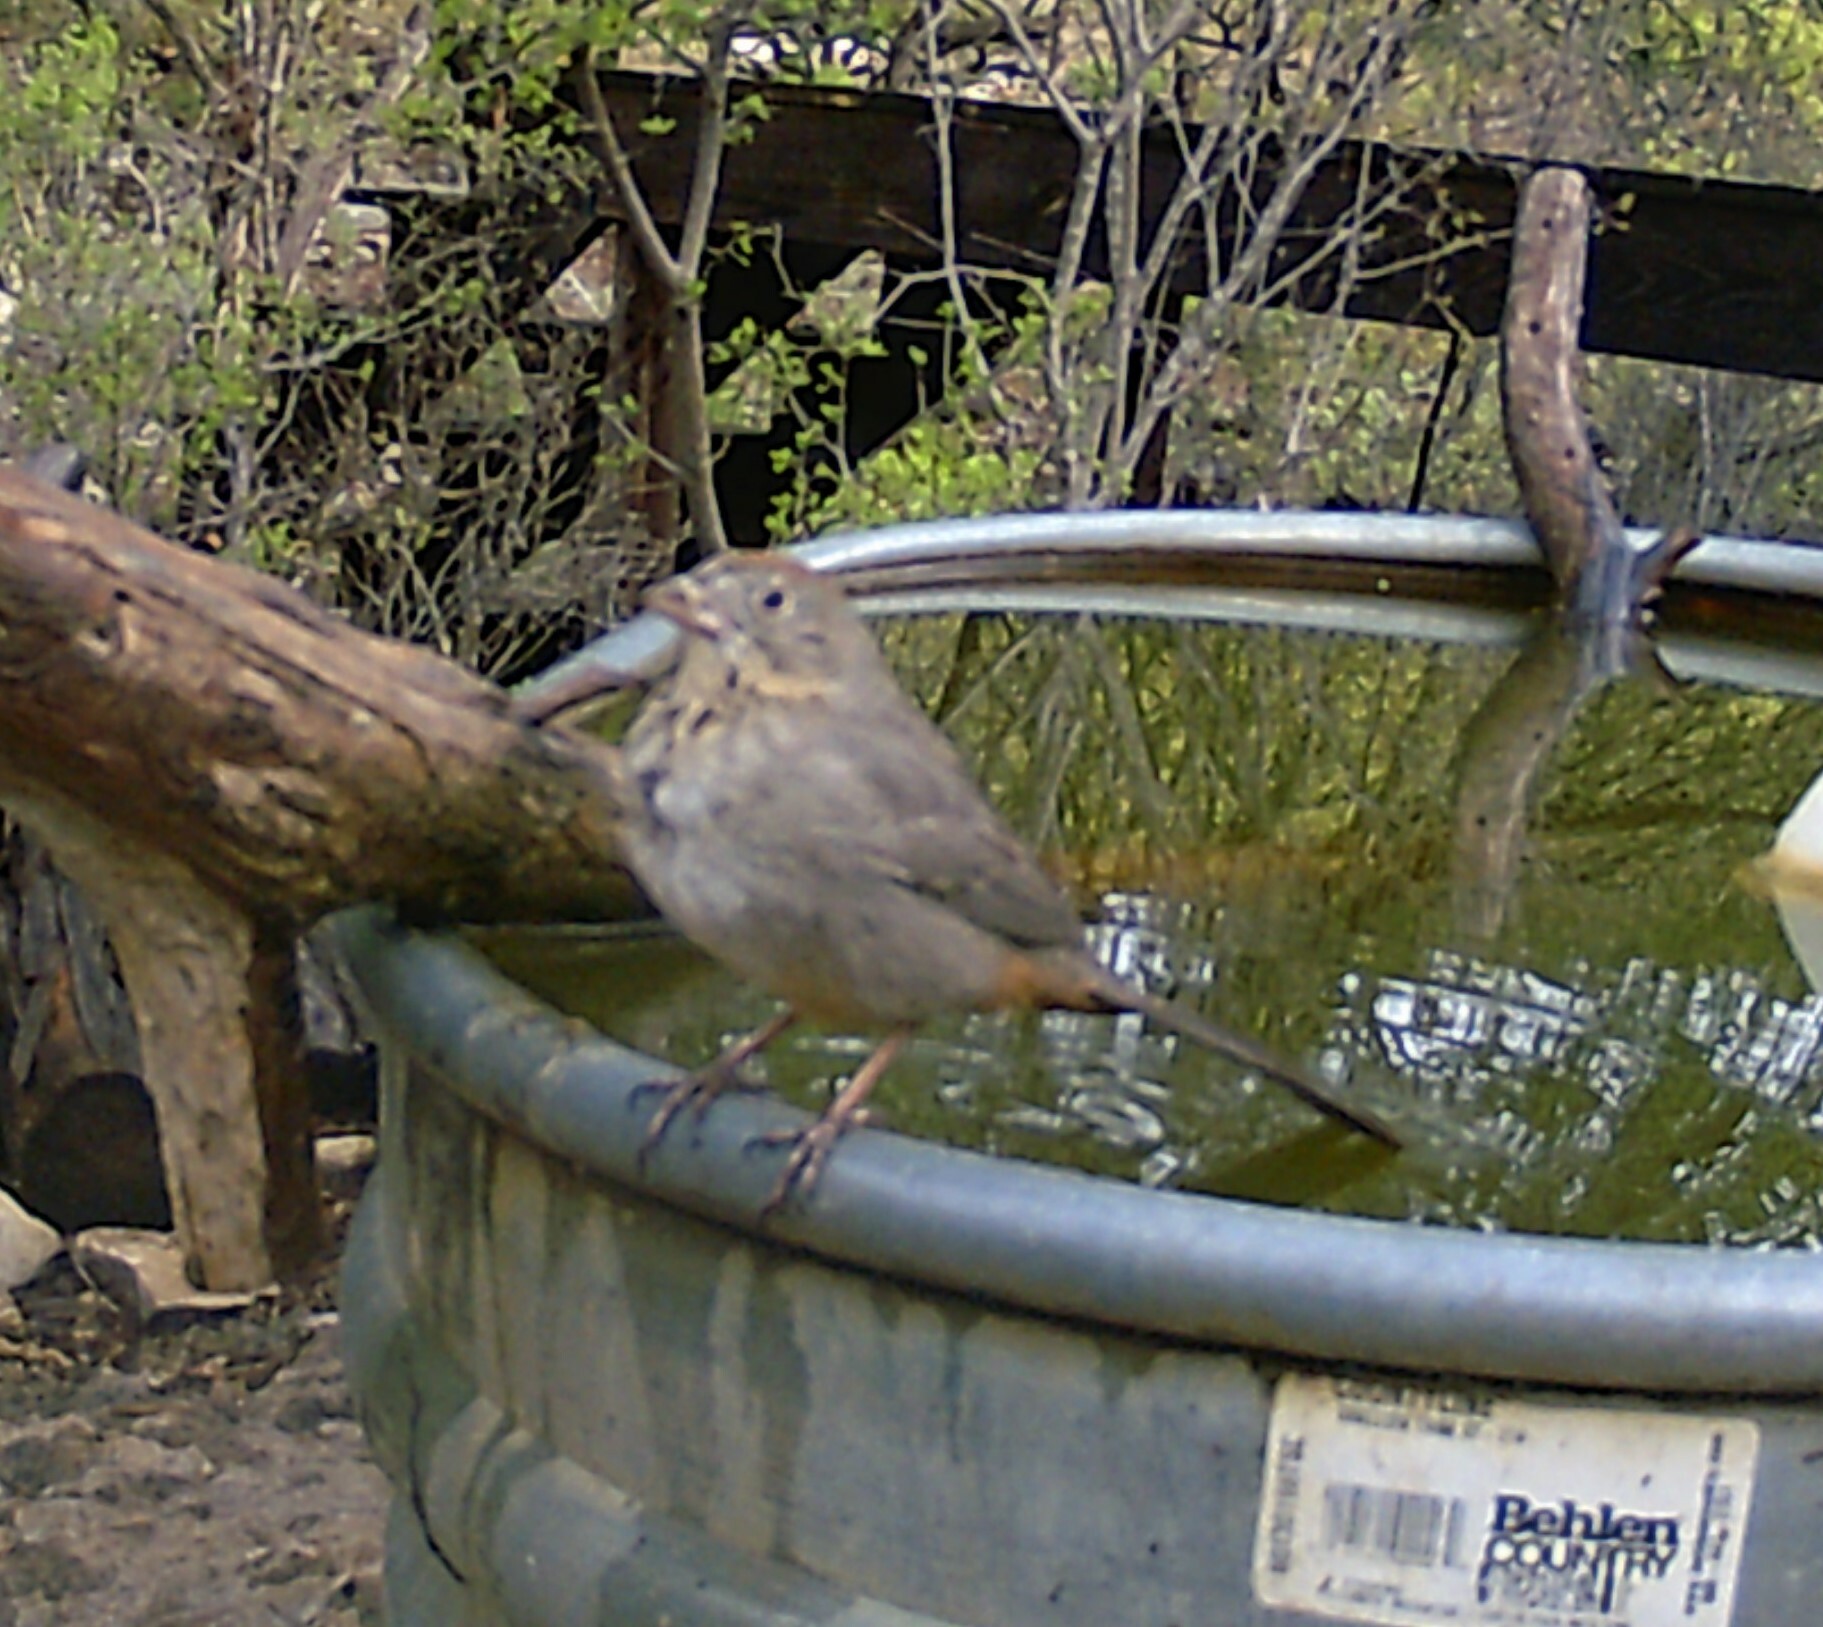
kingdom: Animalia
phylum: Chordata
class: Aves
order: Passeriformes
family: Passerellidae
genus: Melozone
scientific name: Melozone fusca
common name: Canyon towhee
